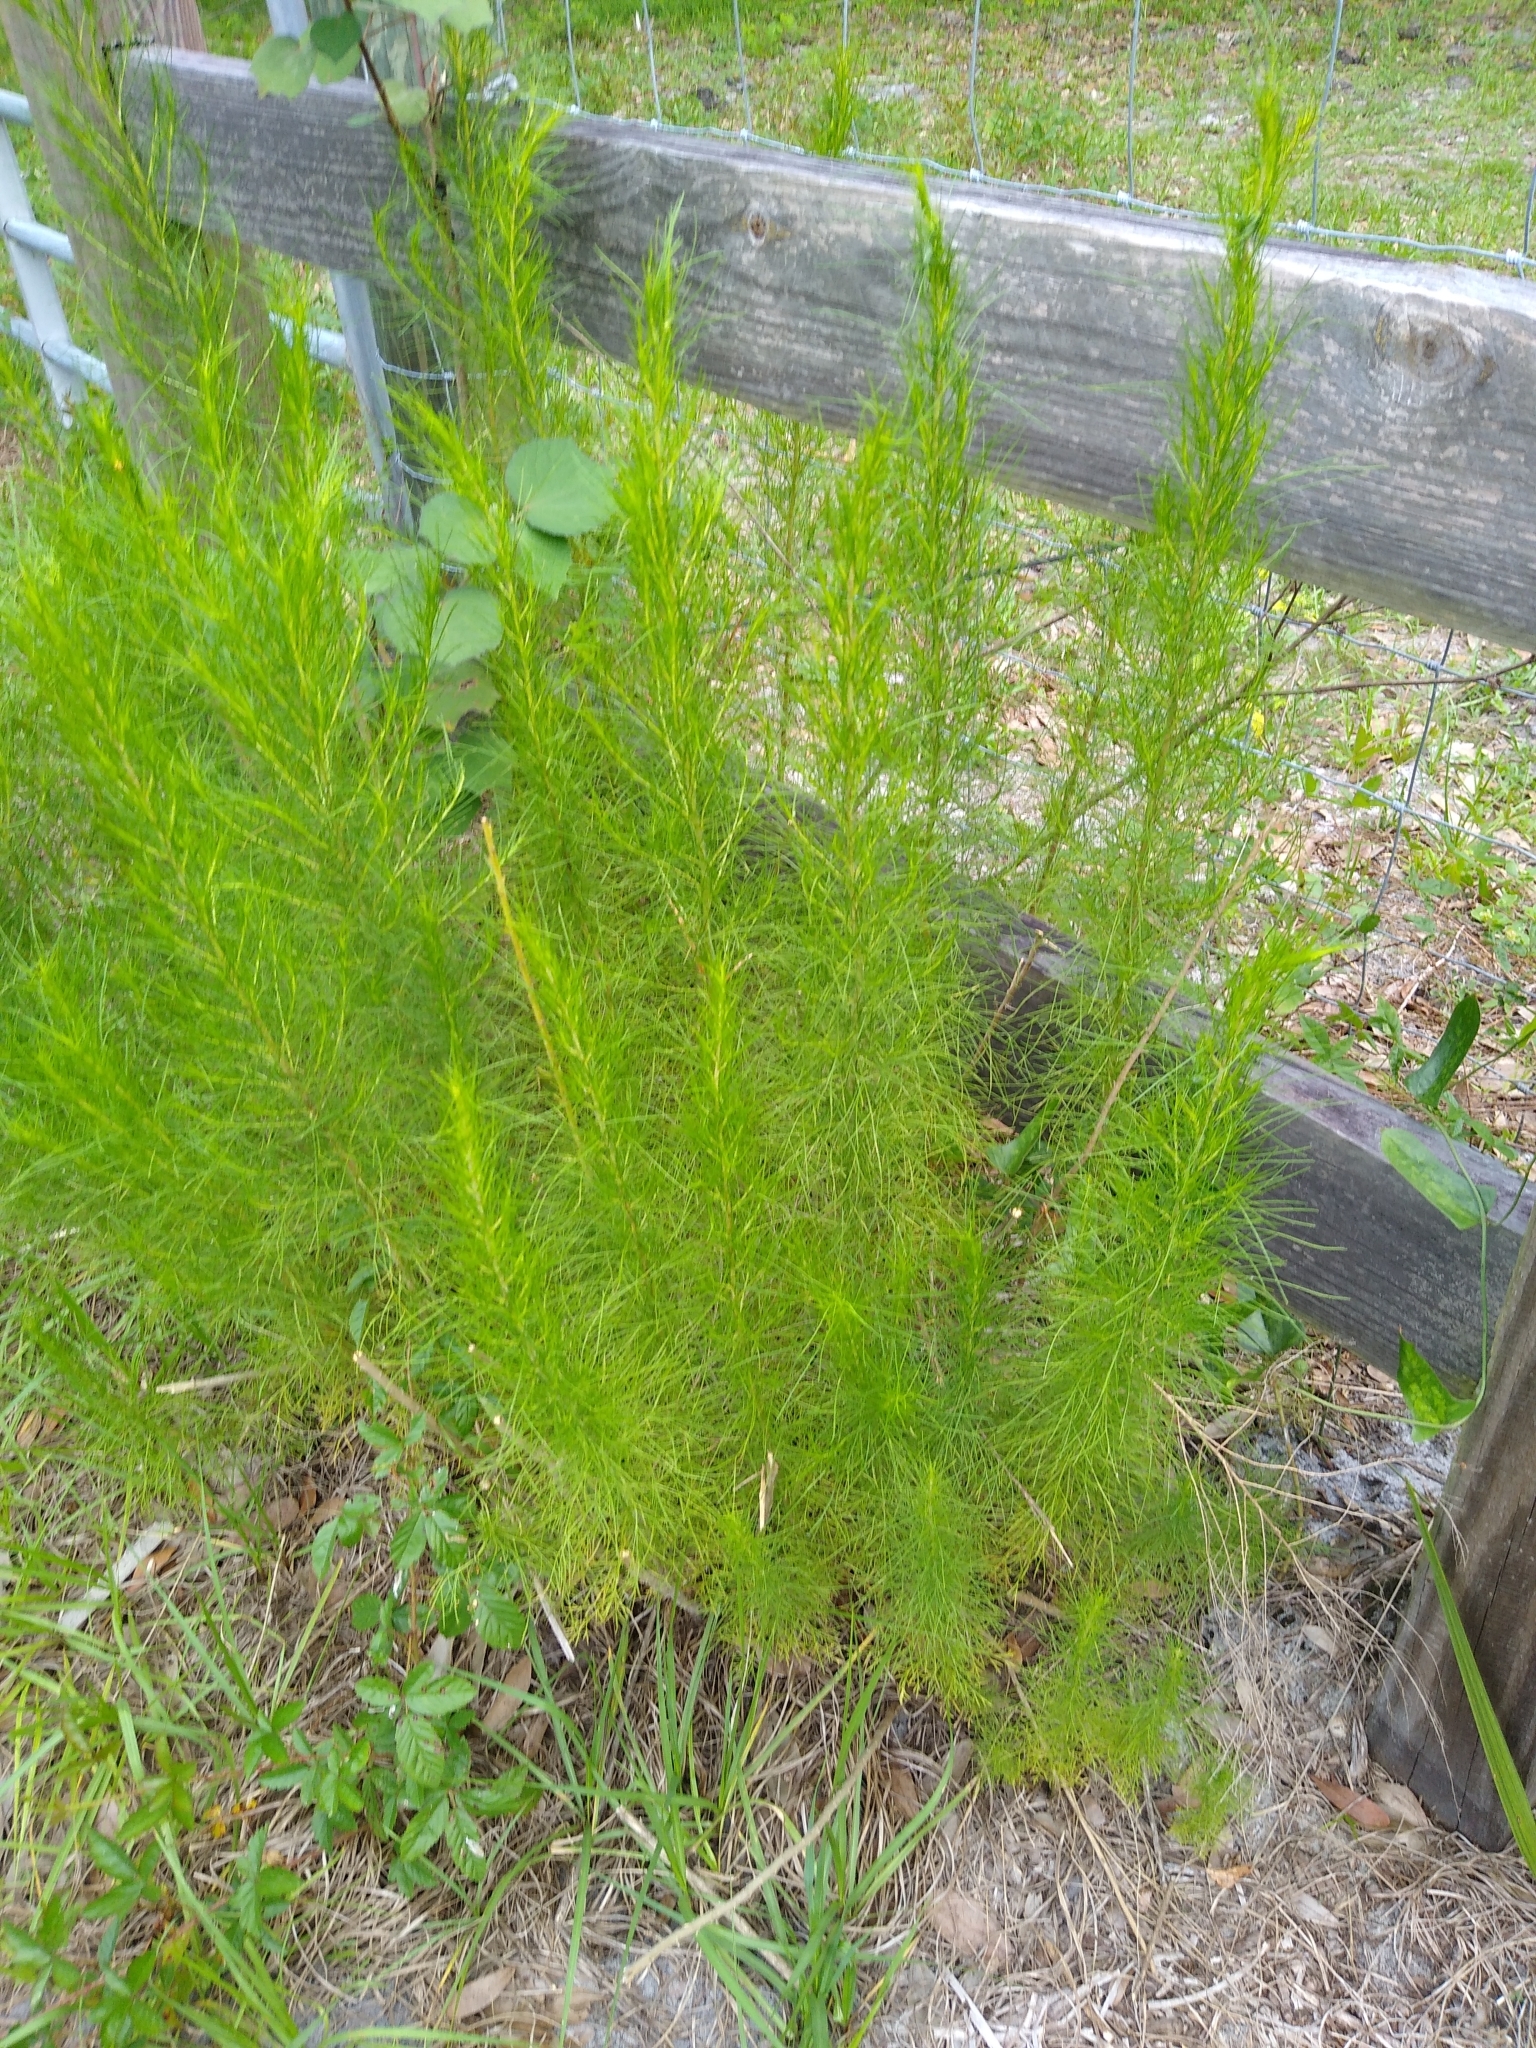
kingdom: Plantae
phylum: Tracheophyta
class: Magnoliopsida
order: Asterales
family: Asteraceae
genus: Eupatorium
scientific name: Eupatorium capillifolium
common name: Dog-fennel
